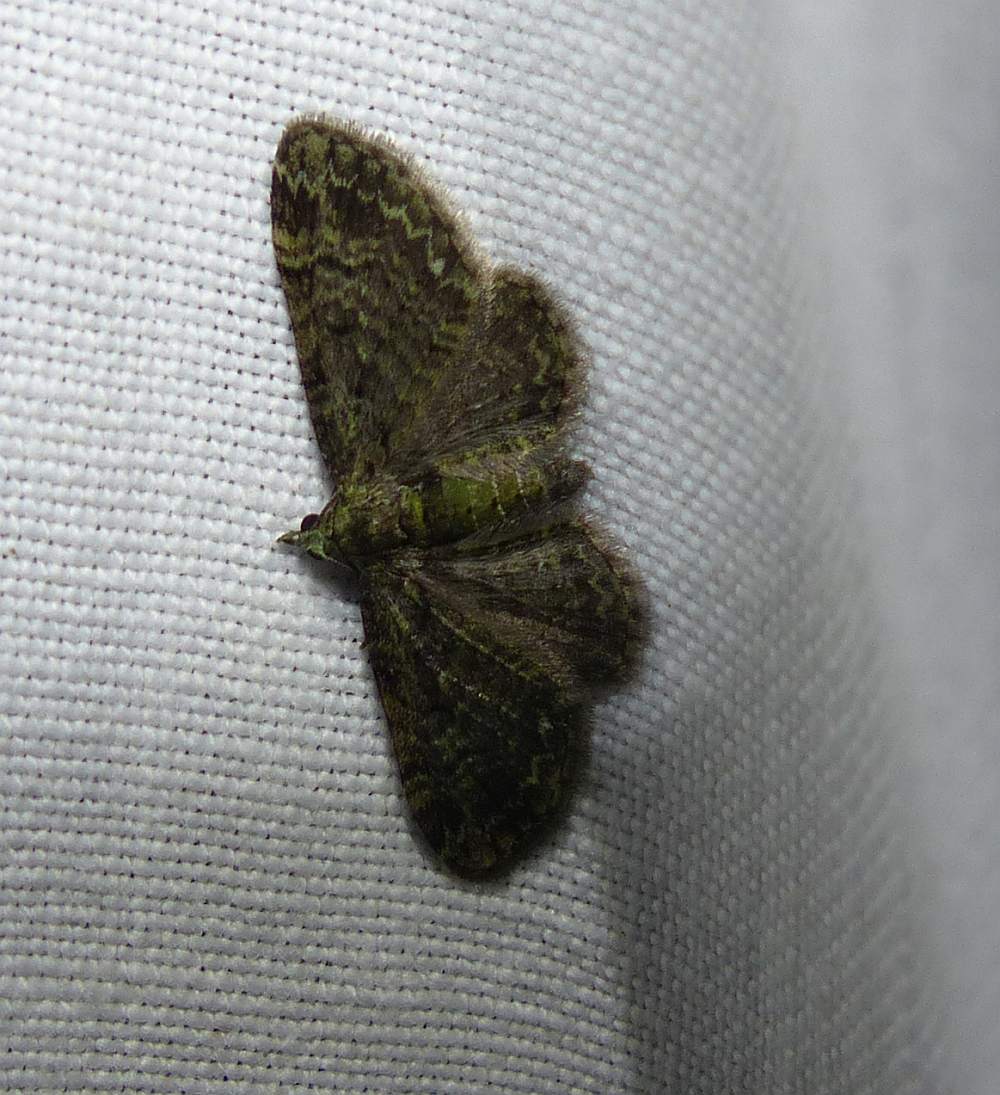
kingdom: Animalia
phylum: Arthropoda
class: Insecta
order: Lepidoptera
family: Geometridae
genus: Pasiphila
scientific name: Pasiphila rectangulata
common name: Green pug
